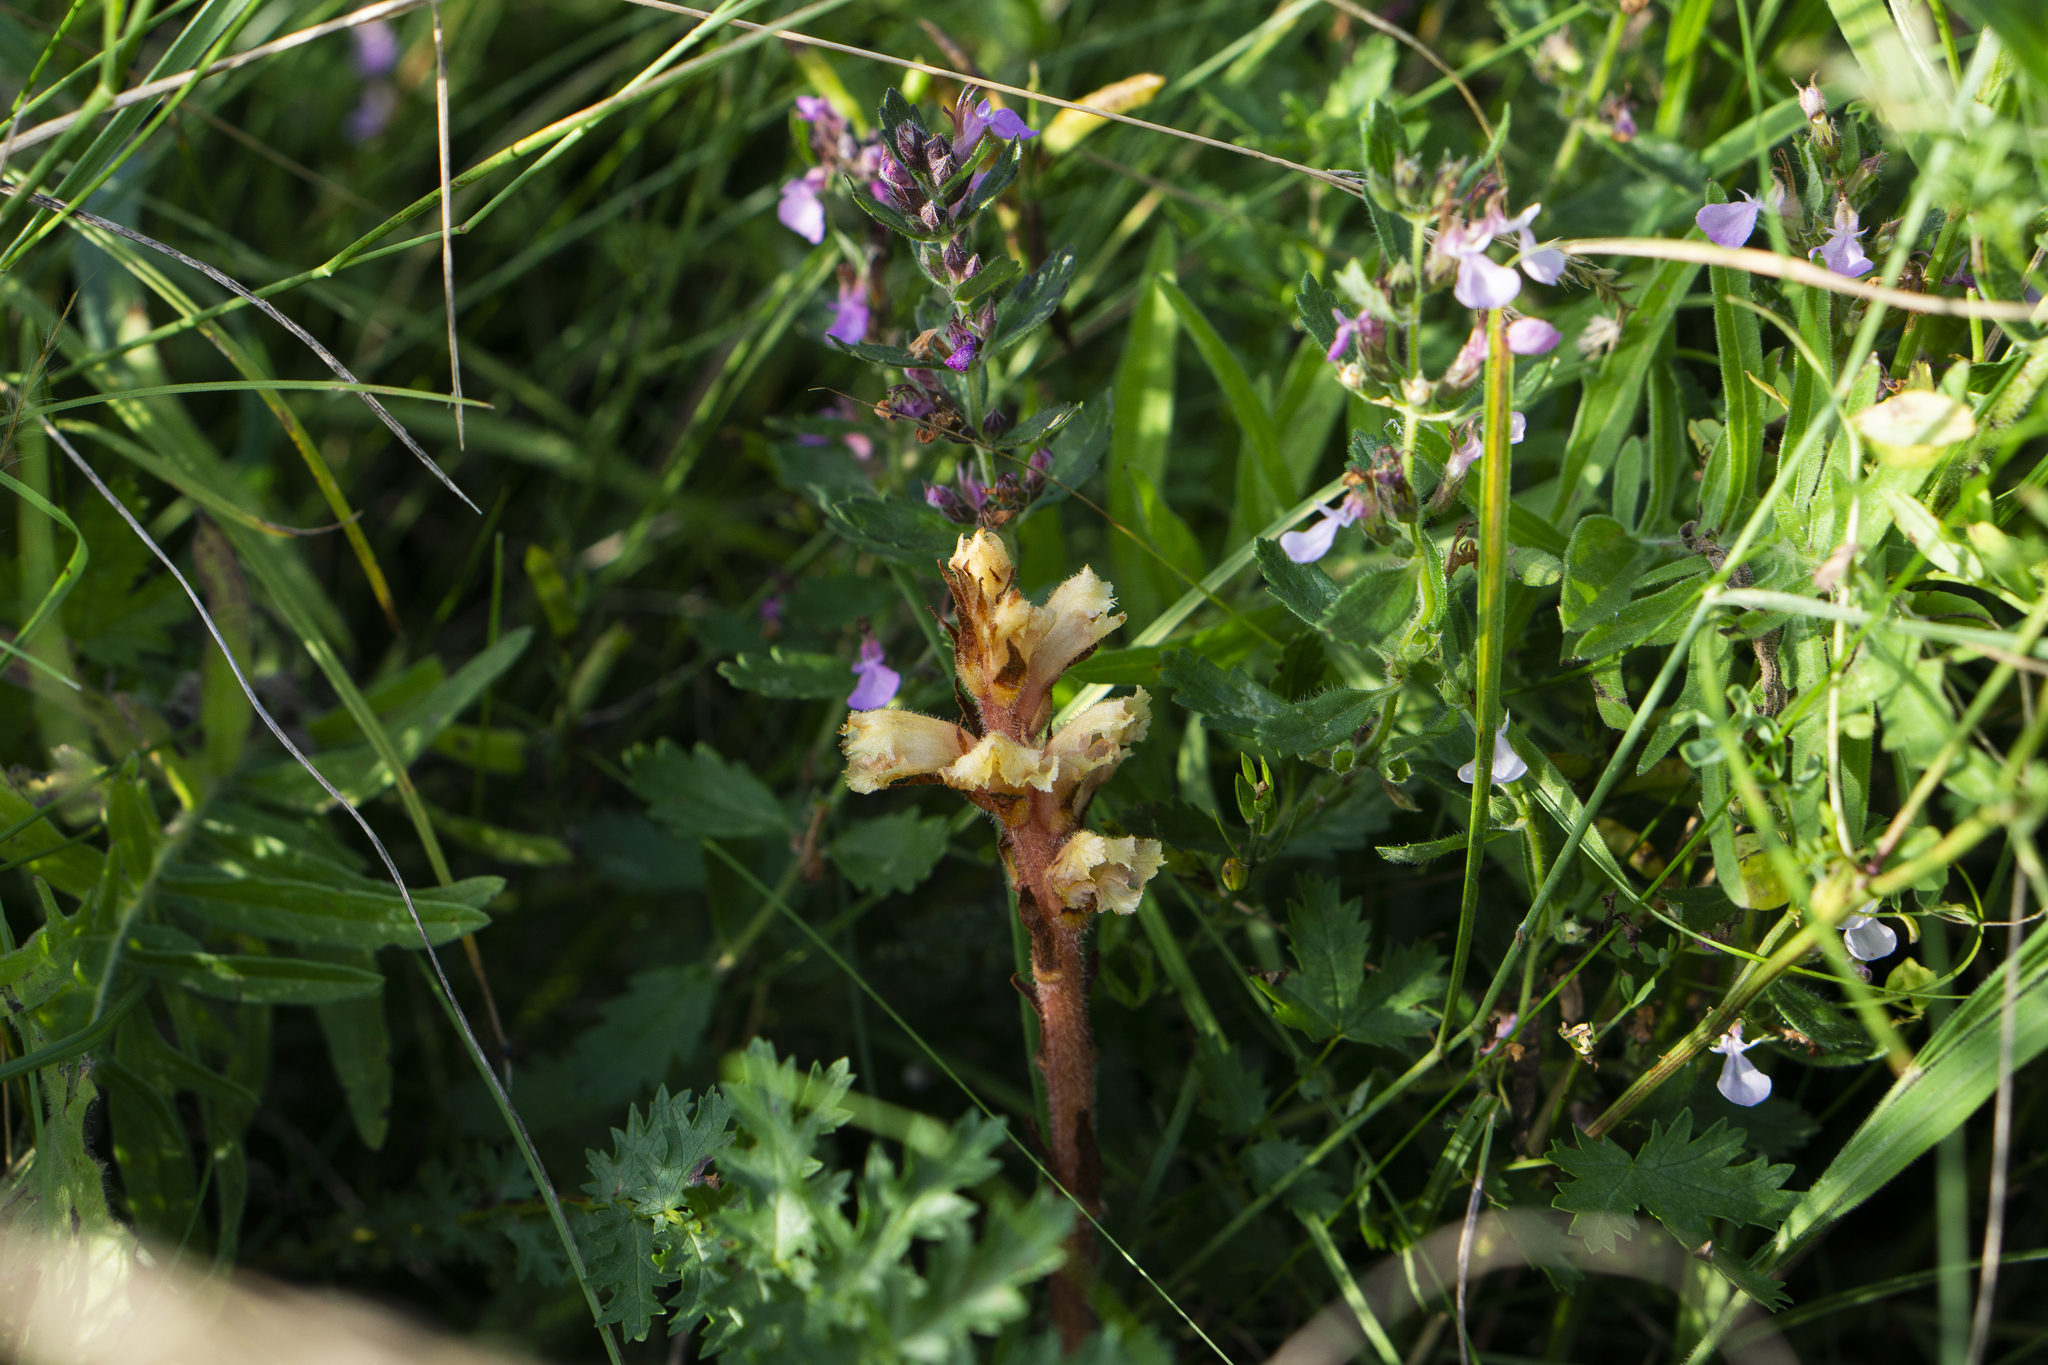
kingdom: Plantae
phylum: Tracheophyta
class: Magnoliopsida
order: Lamiales
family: Orobanchaceae
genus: Orobanche
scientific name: Orobanche alba
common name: Thyme broomrape
